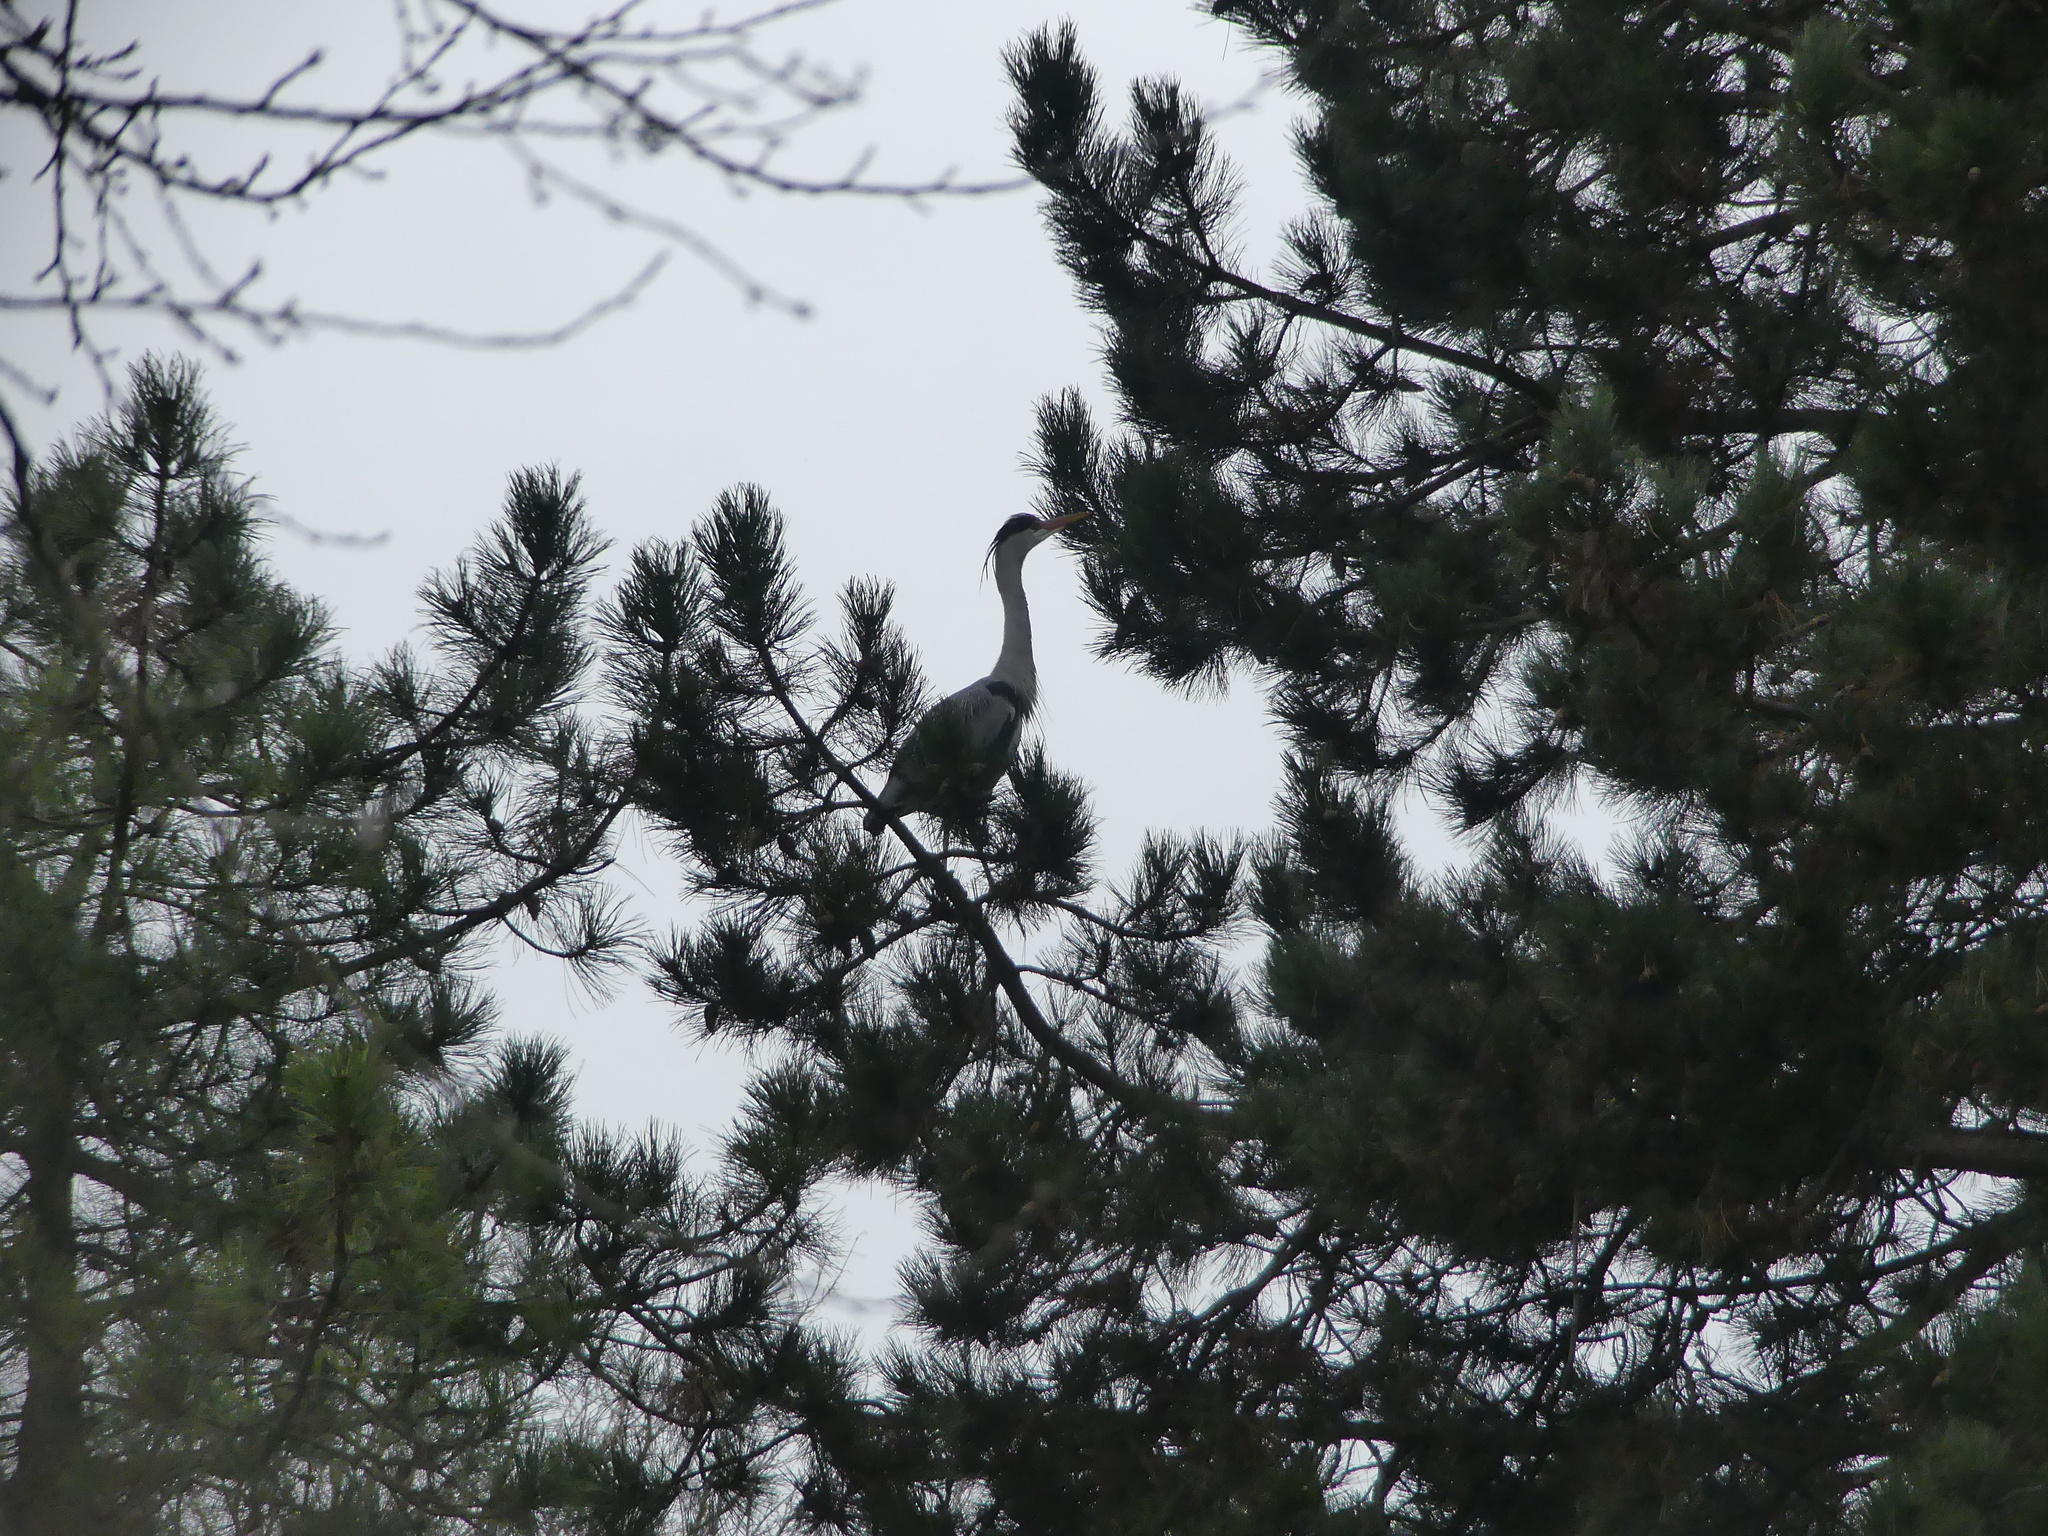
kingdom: Animalia
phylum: Chordata
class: Aves
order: Pelecaniformes
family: Ardeidae
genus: Ardea
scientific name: Ardea cinerea
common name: Grey heron
